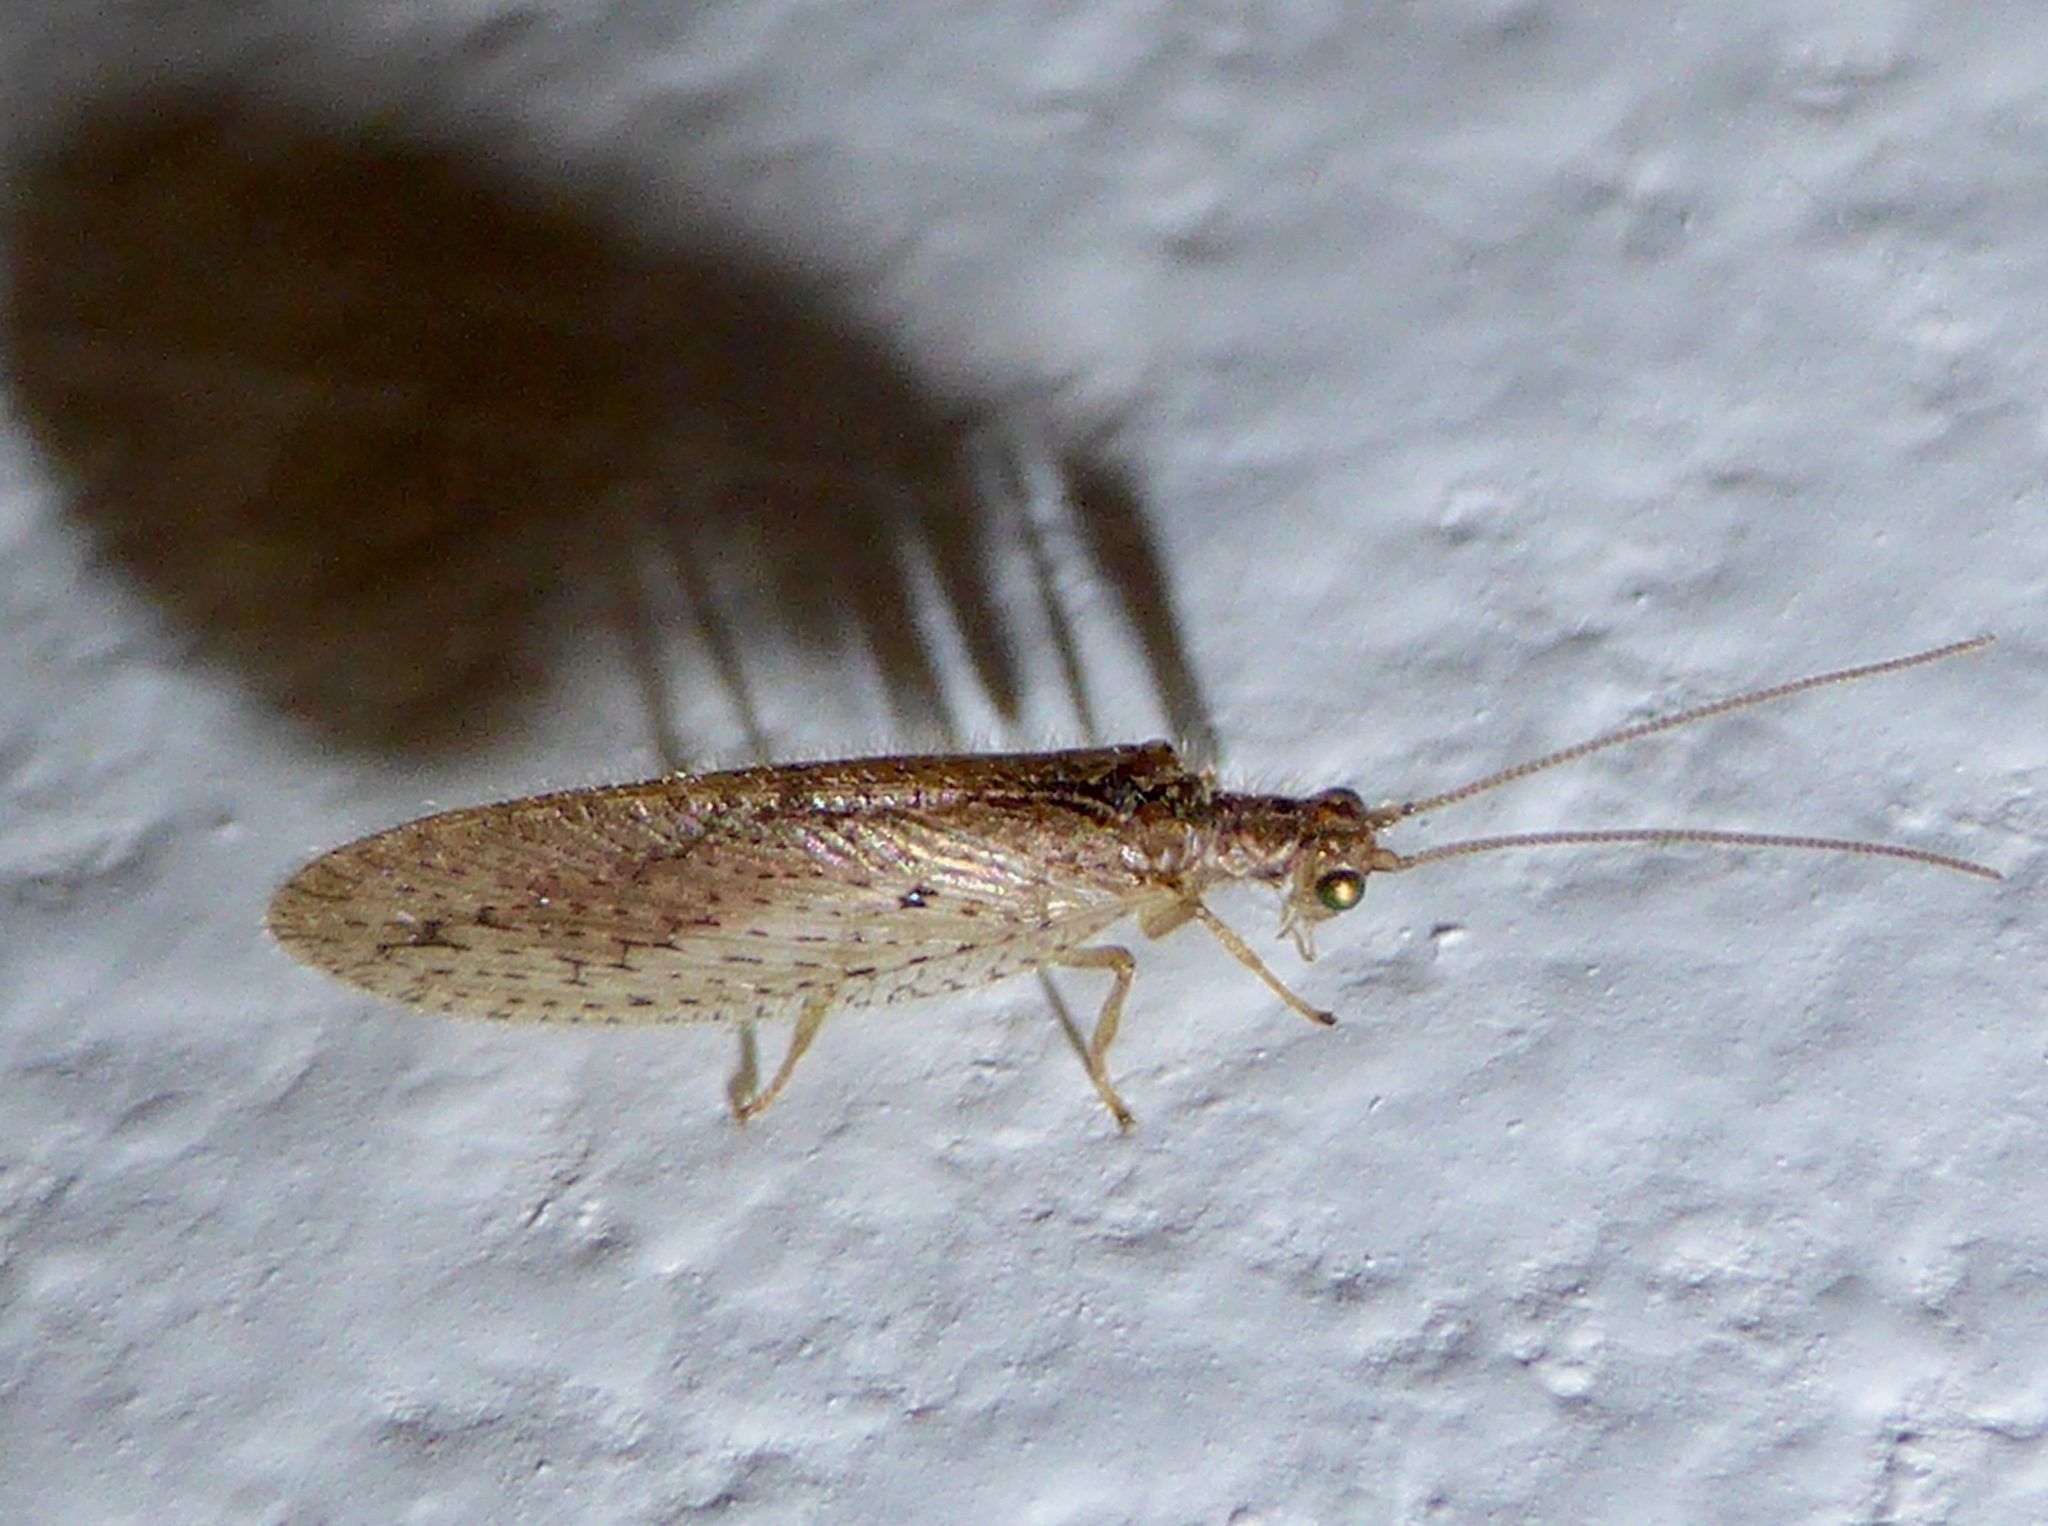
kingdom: Animalia
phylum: Arthropoda
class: Insecta
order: Neuroptera
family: Hemerobiidae
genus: Micromus
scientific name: Micromus tasmaniae
